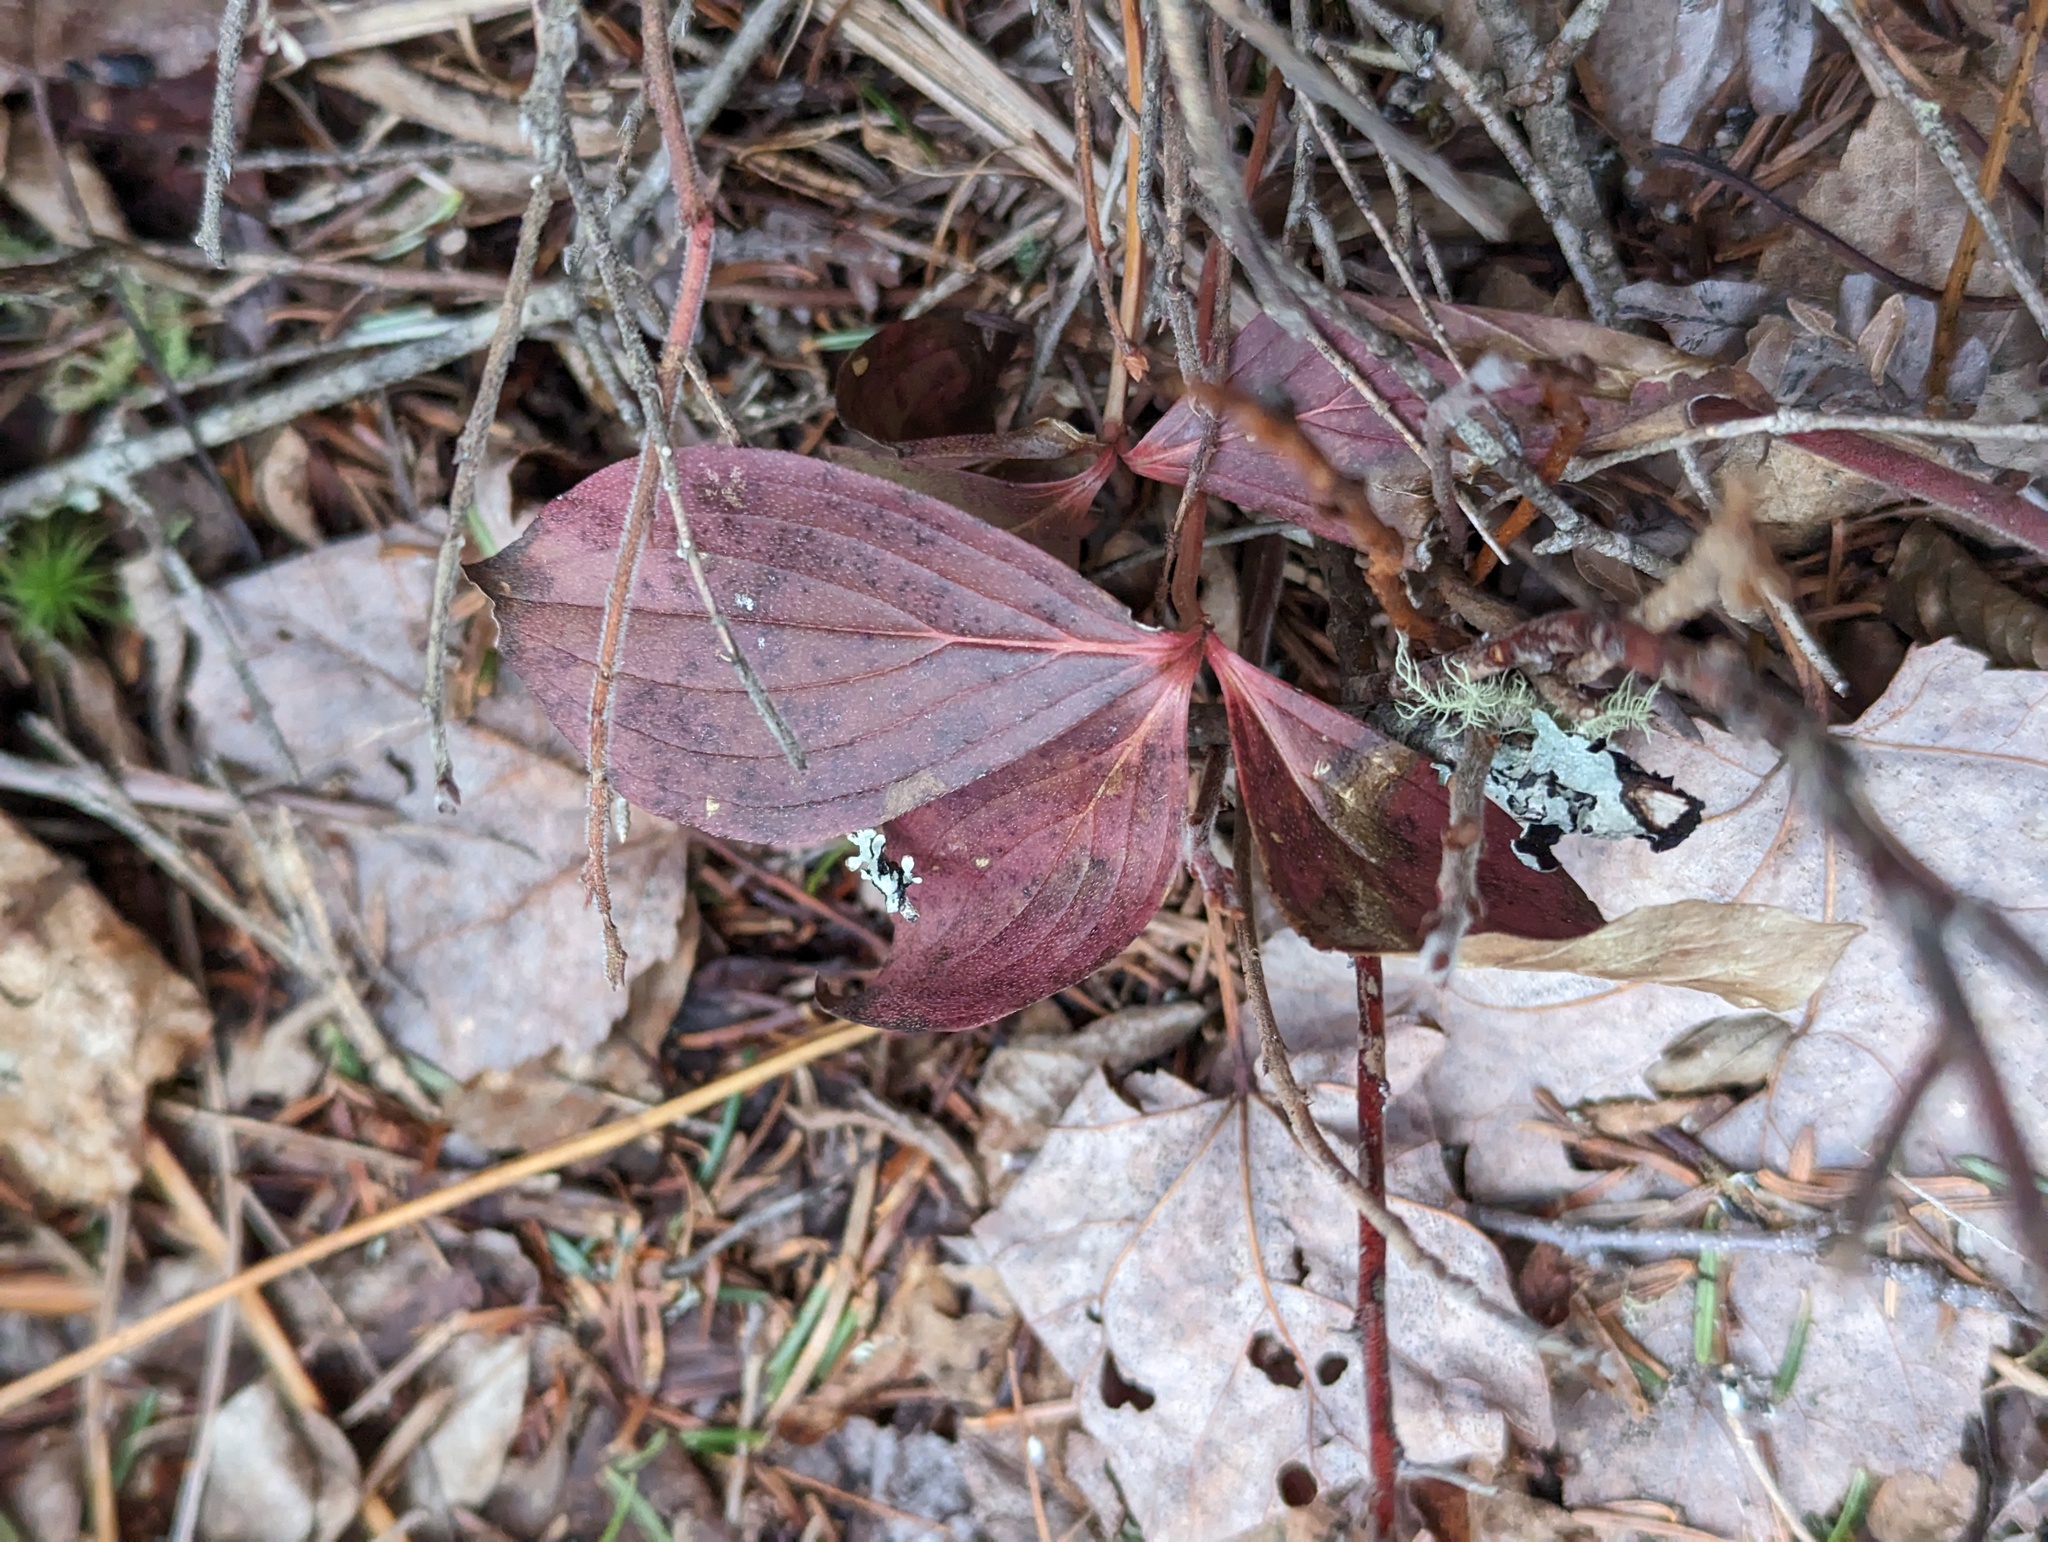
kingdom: Plantae
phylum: Tracheophyta
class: Magnoliopsida
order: Cornales
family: Cornaceae
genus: Cornus
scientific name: Cornus canadensis
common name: Creeping dogwood
